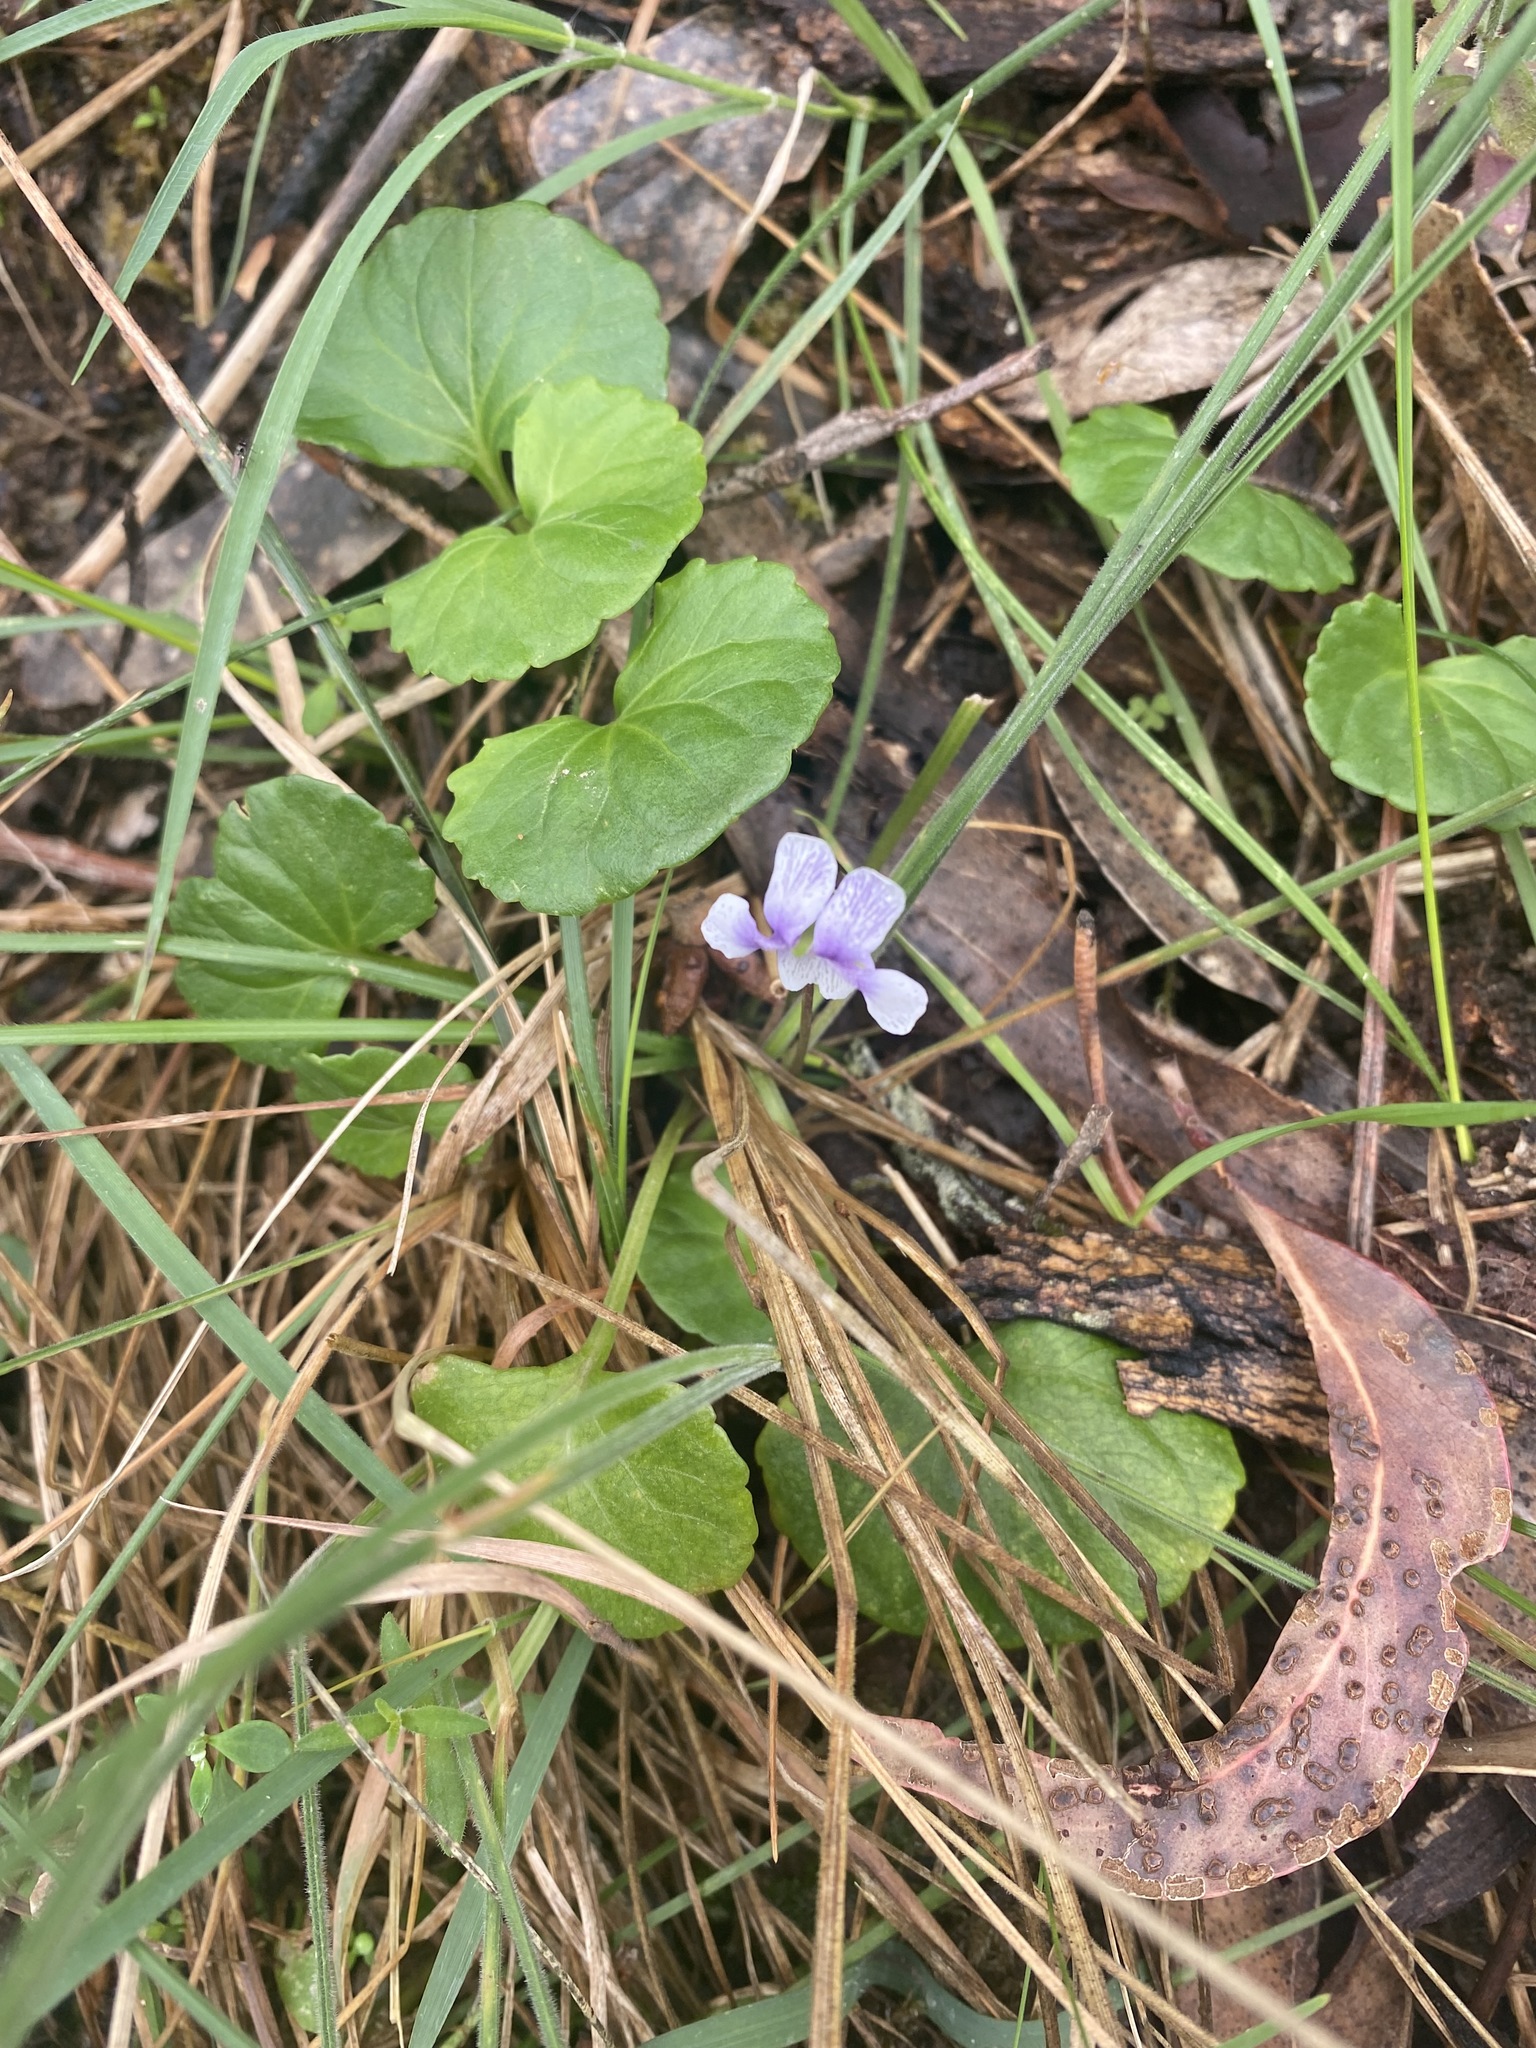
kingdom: Plantae
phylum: Tracheophyta
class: Magnoliopsida
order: Malpighiales
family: Violaceae
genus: Viola
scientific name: Viola hederacea
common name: Australian violet
